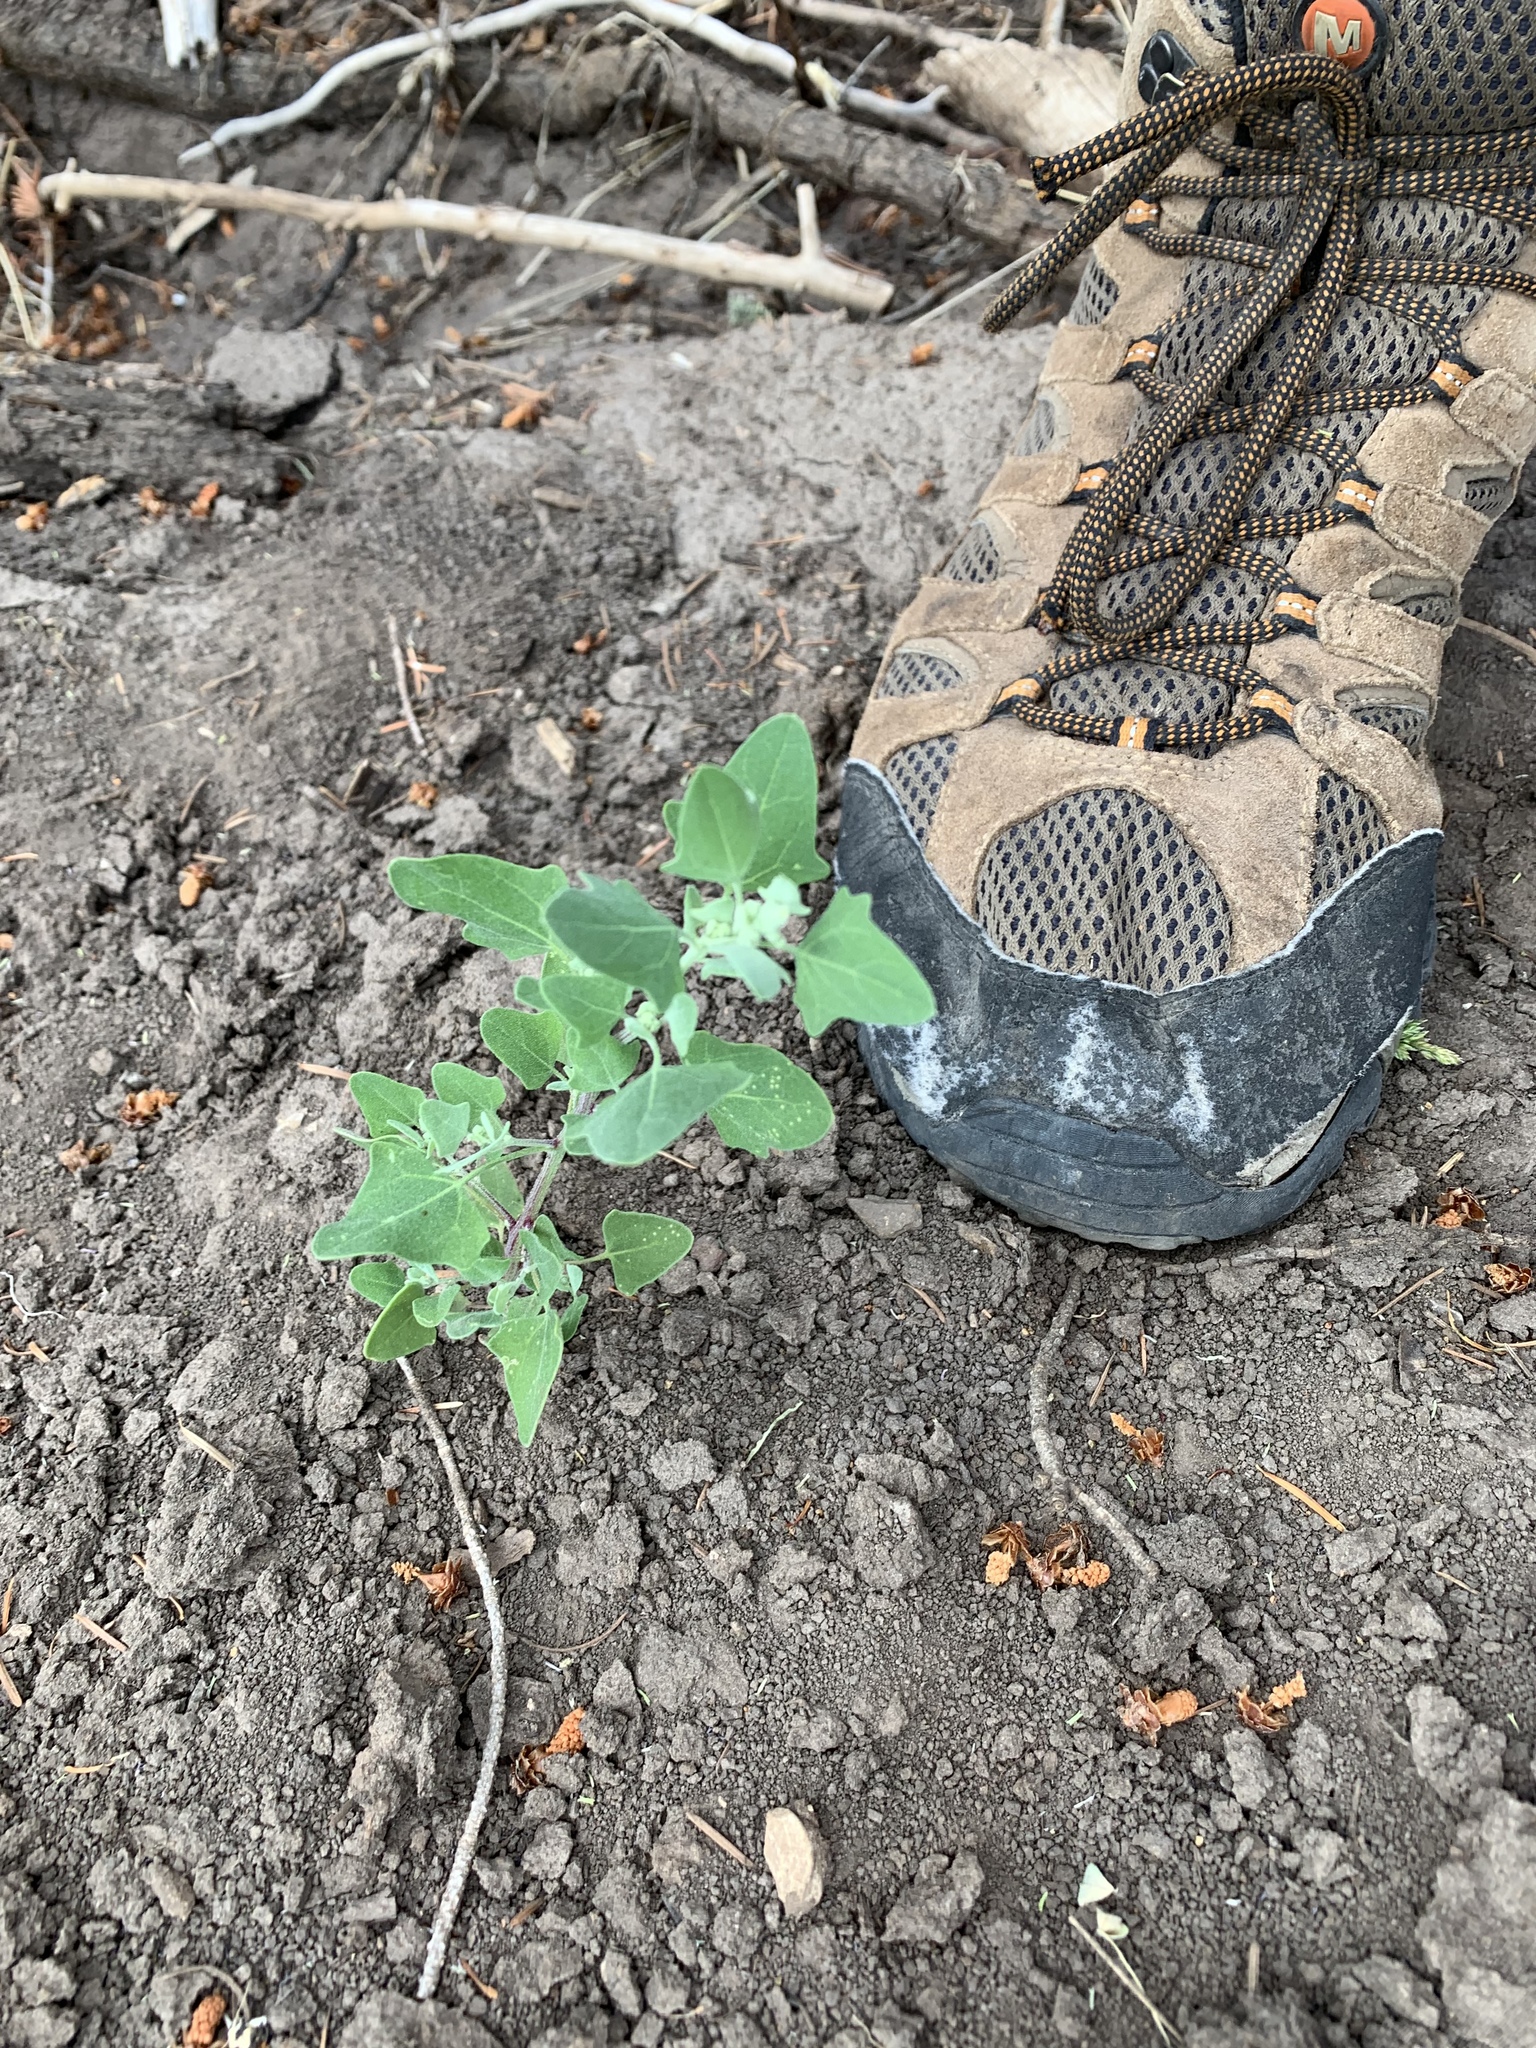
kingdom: Plantae
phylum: Tracheophyta
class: Magnoliopsida
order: Caryophyllales
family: Amaranthaceae
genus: Chenopodium
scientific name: Chenopodium album
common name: Fat-hen
